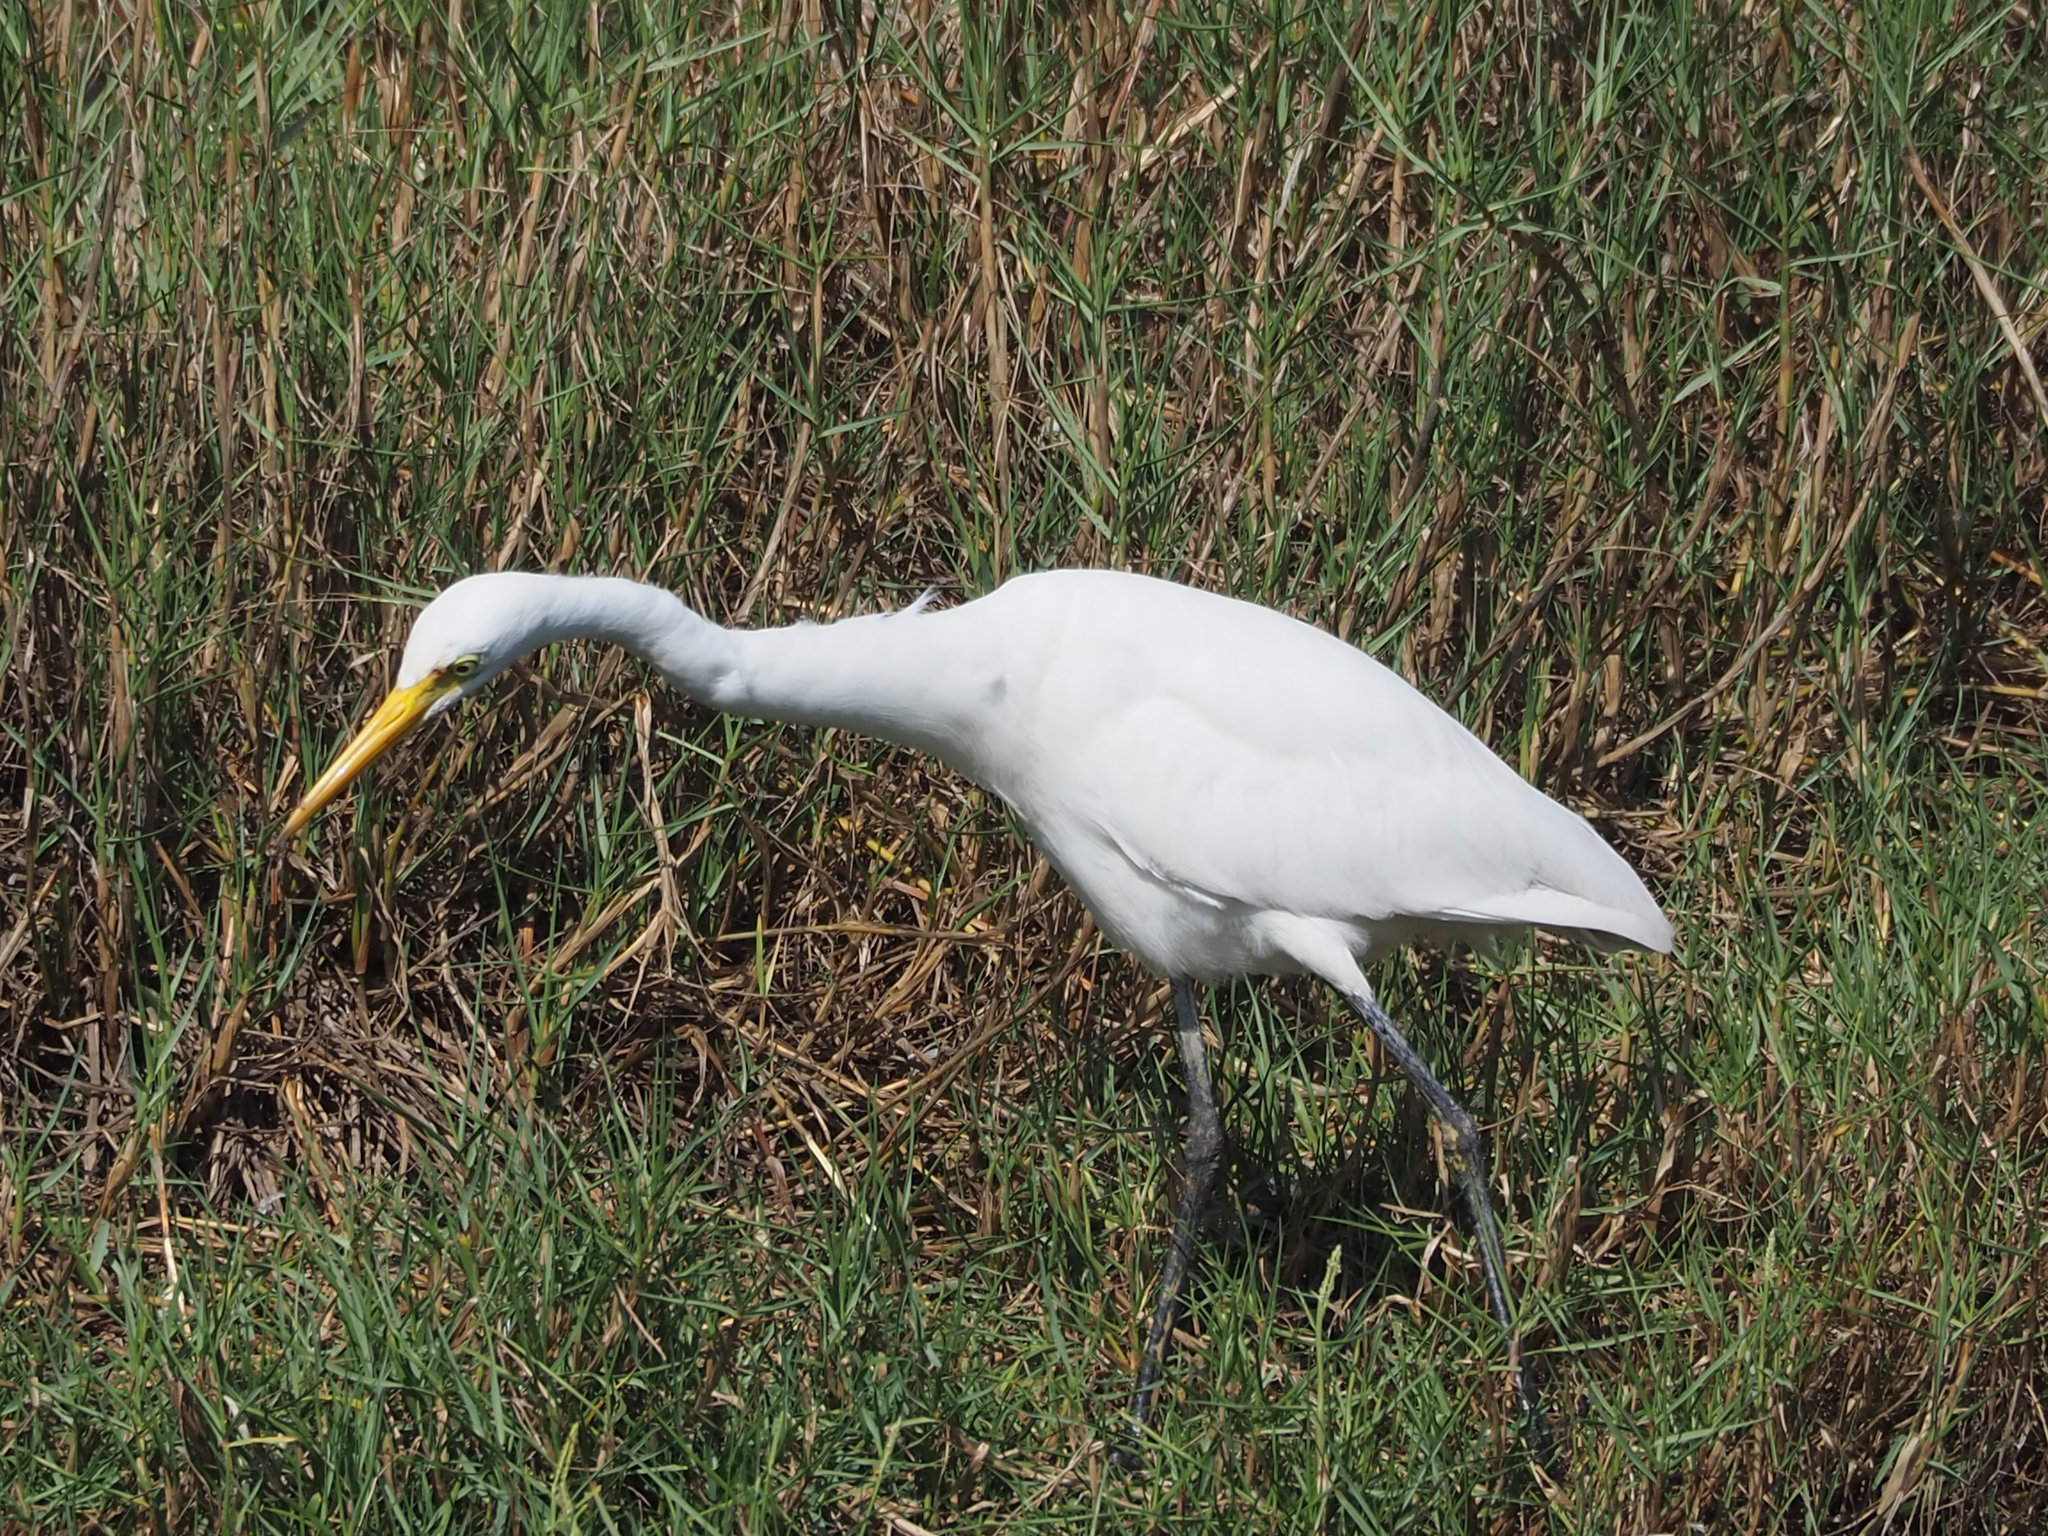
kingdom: Animalia
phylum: Chordata
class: Aves
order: Pelecaniformes
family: Ardeidae
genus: Egretta
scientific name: Egretta intermedia
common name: Intermediate egret
